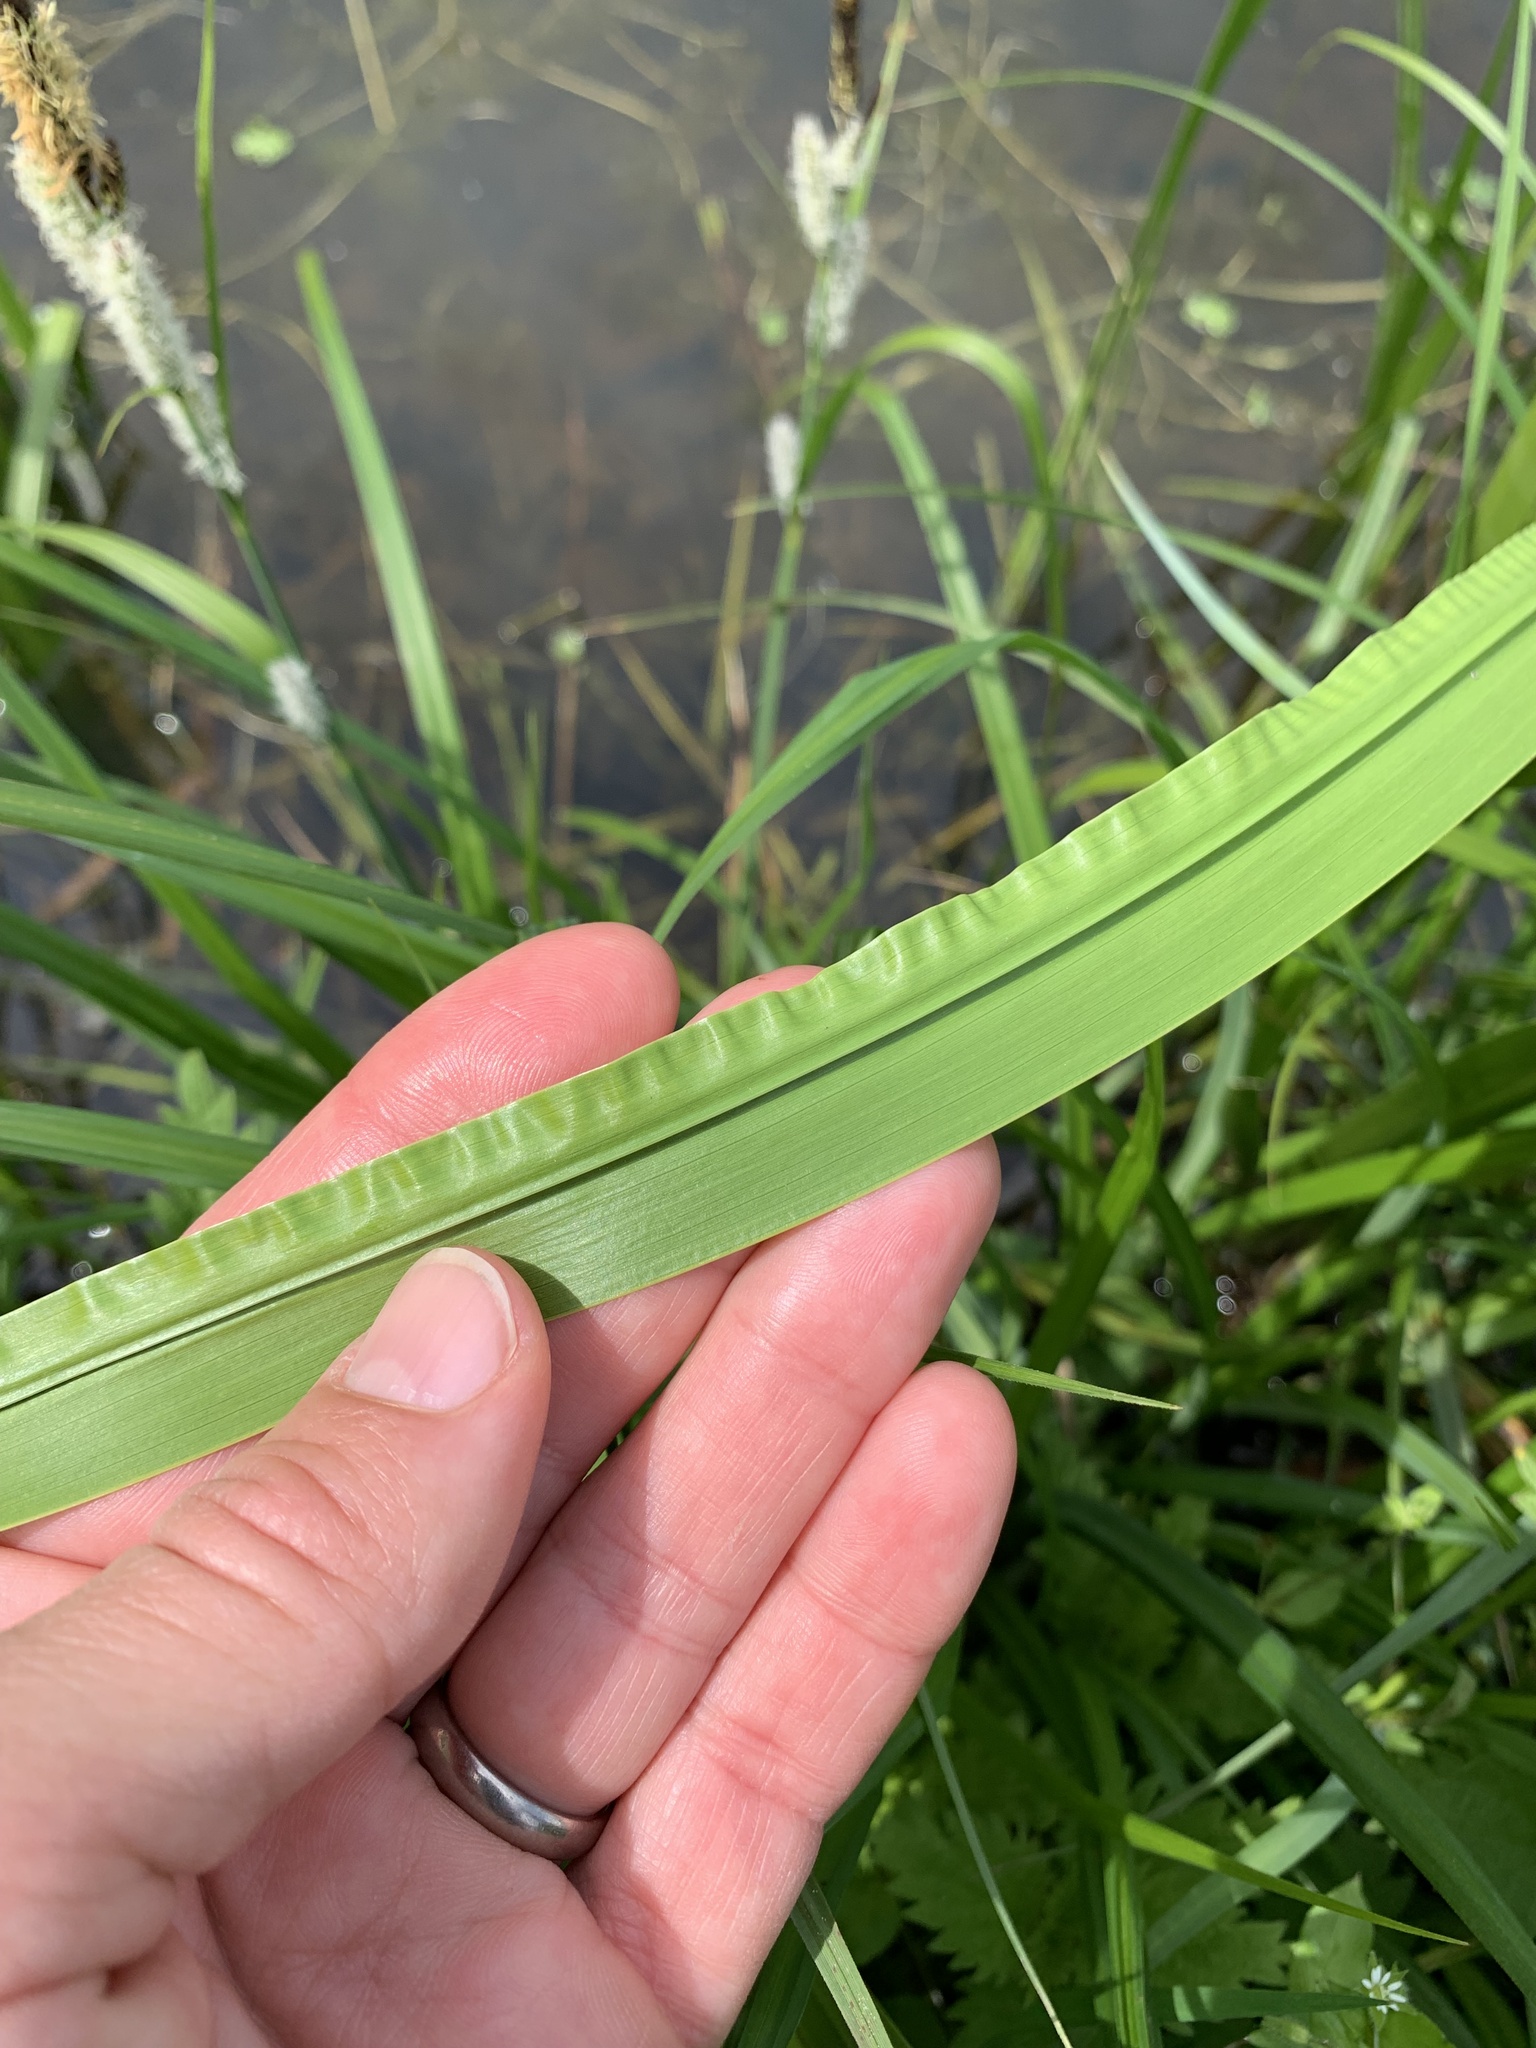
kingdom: Plantae
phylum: Tracheophyta
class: Liliopsida
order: Acorales
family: Acoraceae
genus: Acorus
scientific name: Acorus calamus
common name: Sweet-flag
